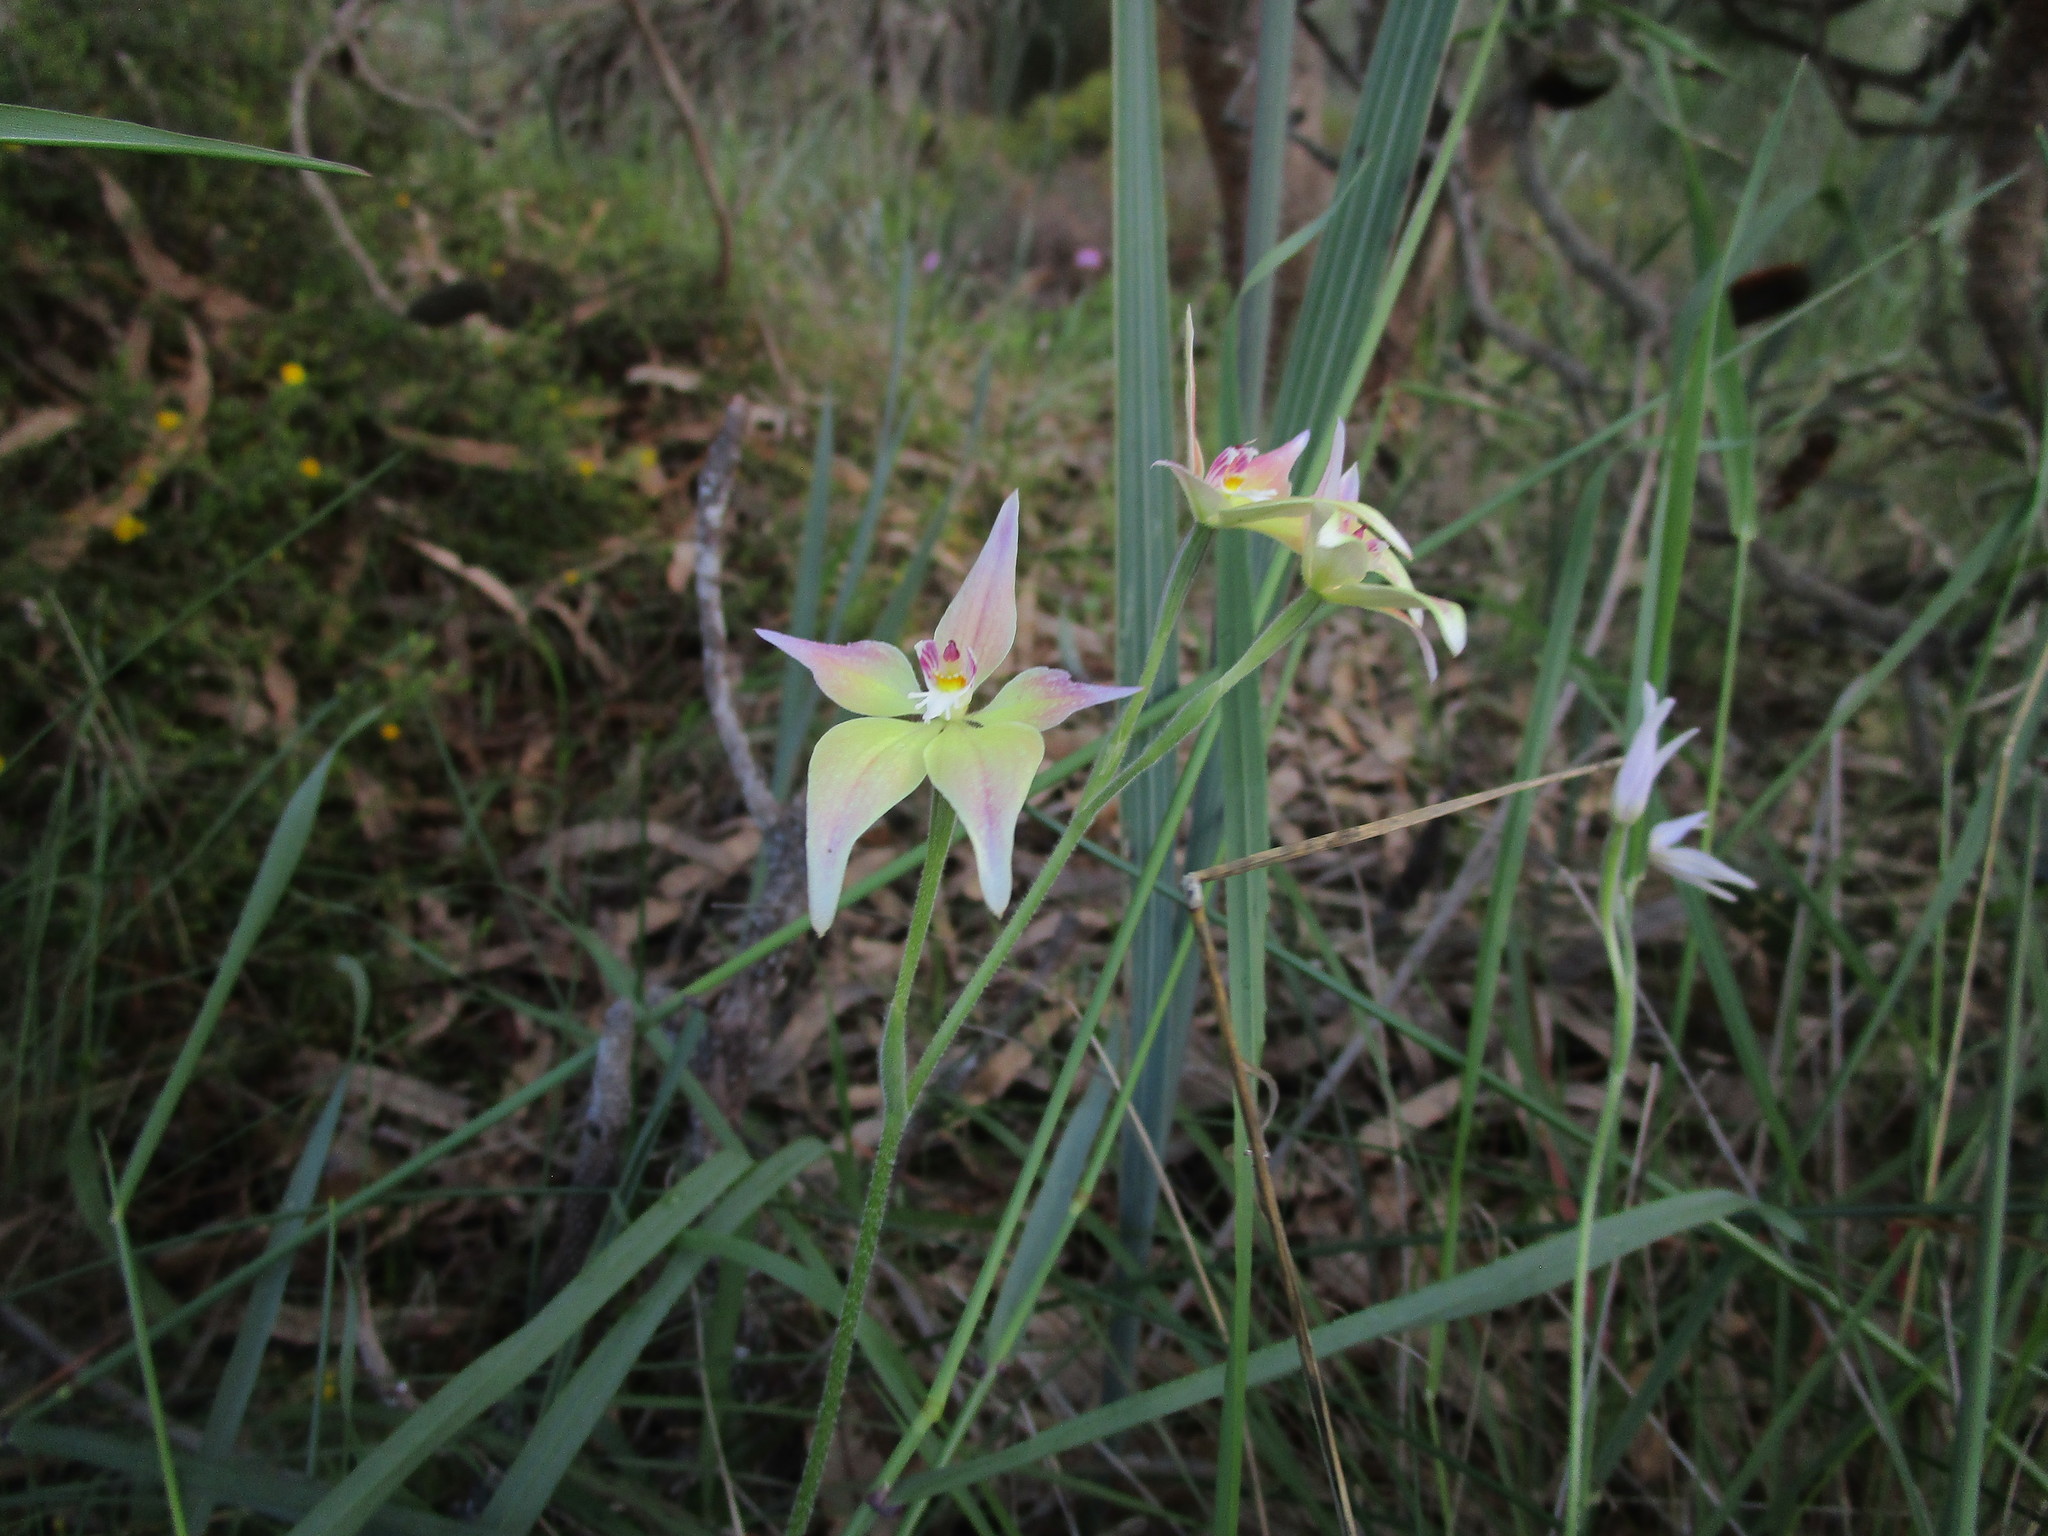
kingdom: Plantae
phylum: Tracheophyta
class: Liliopsida
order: Asparagales
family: Orchidaceae
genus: Caladenia
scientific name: Caladenia spectabilis
